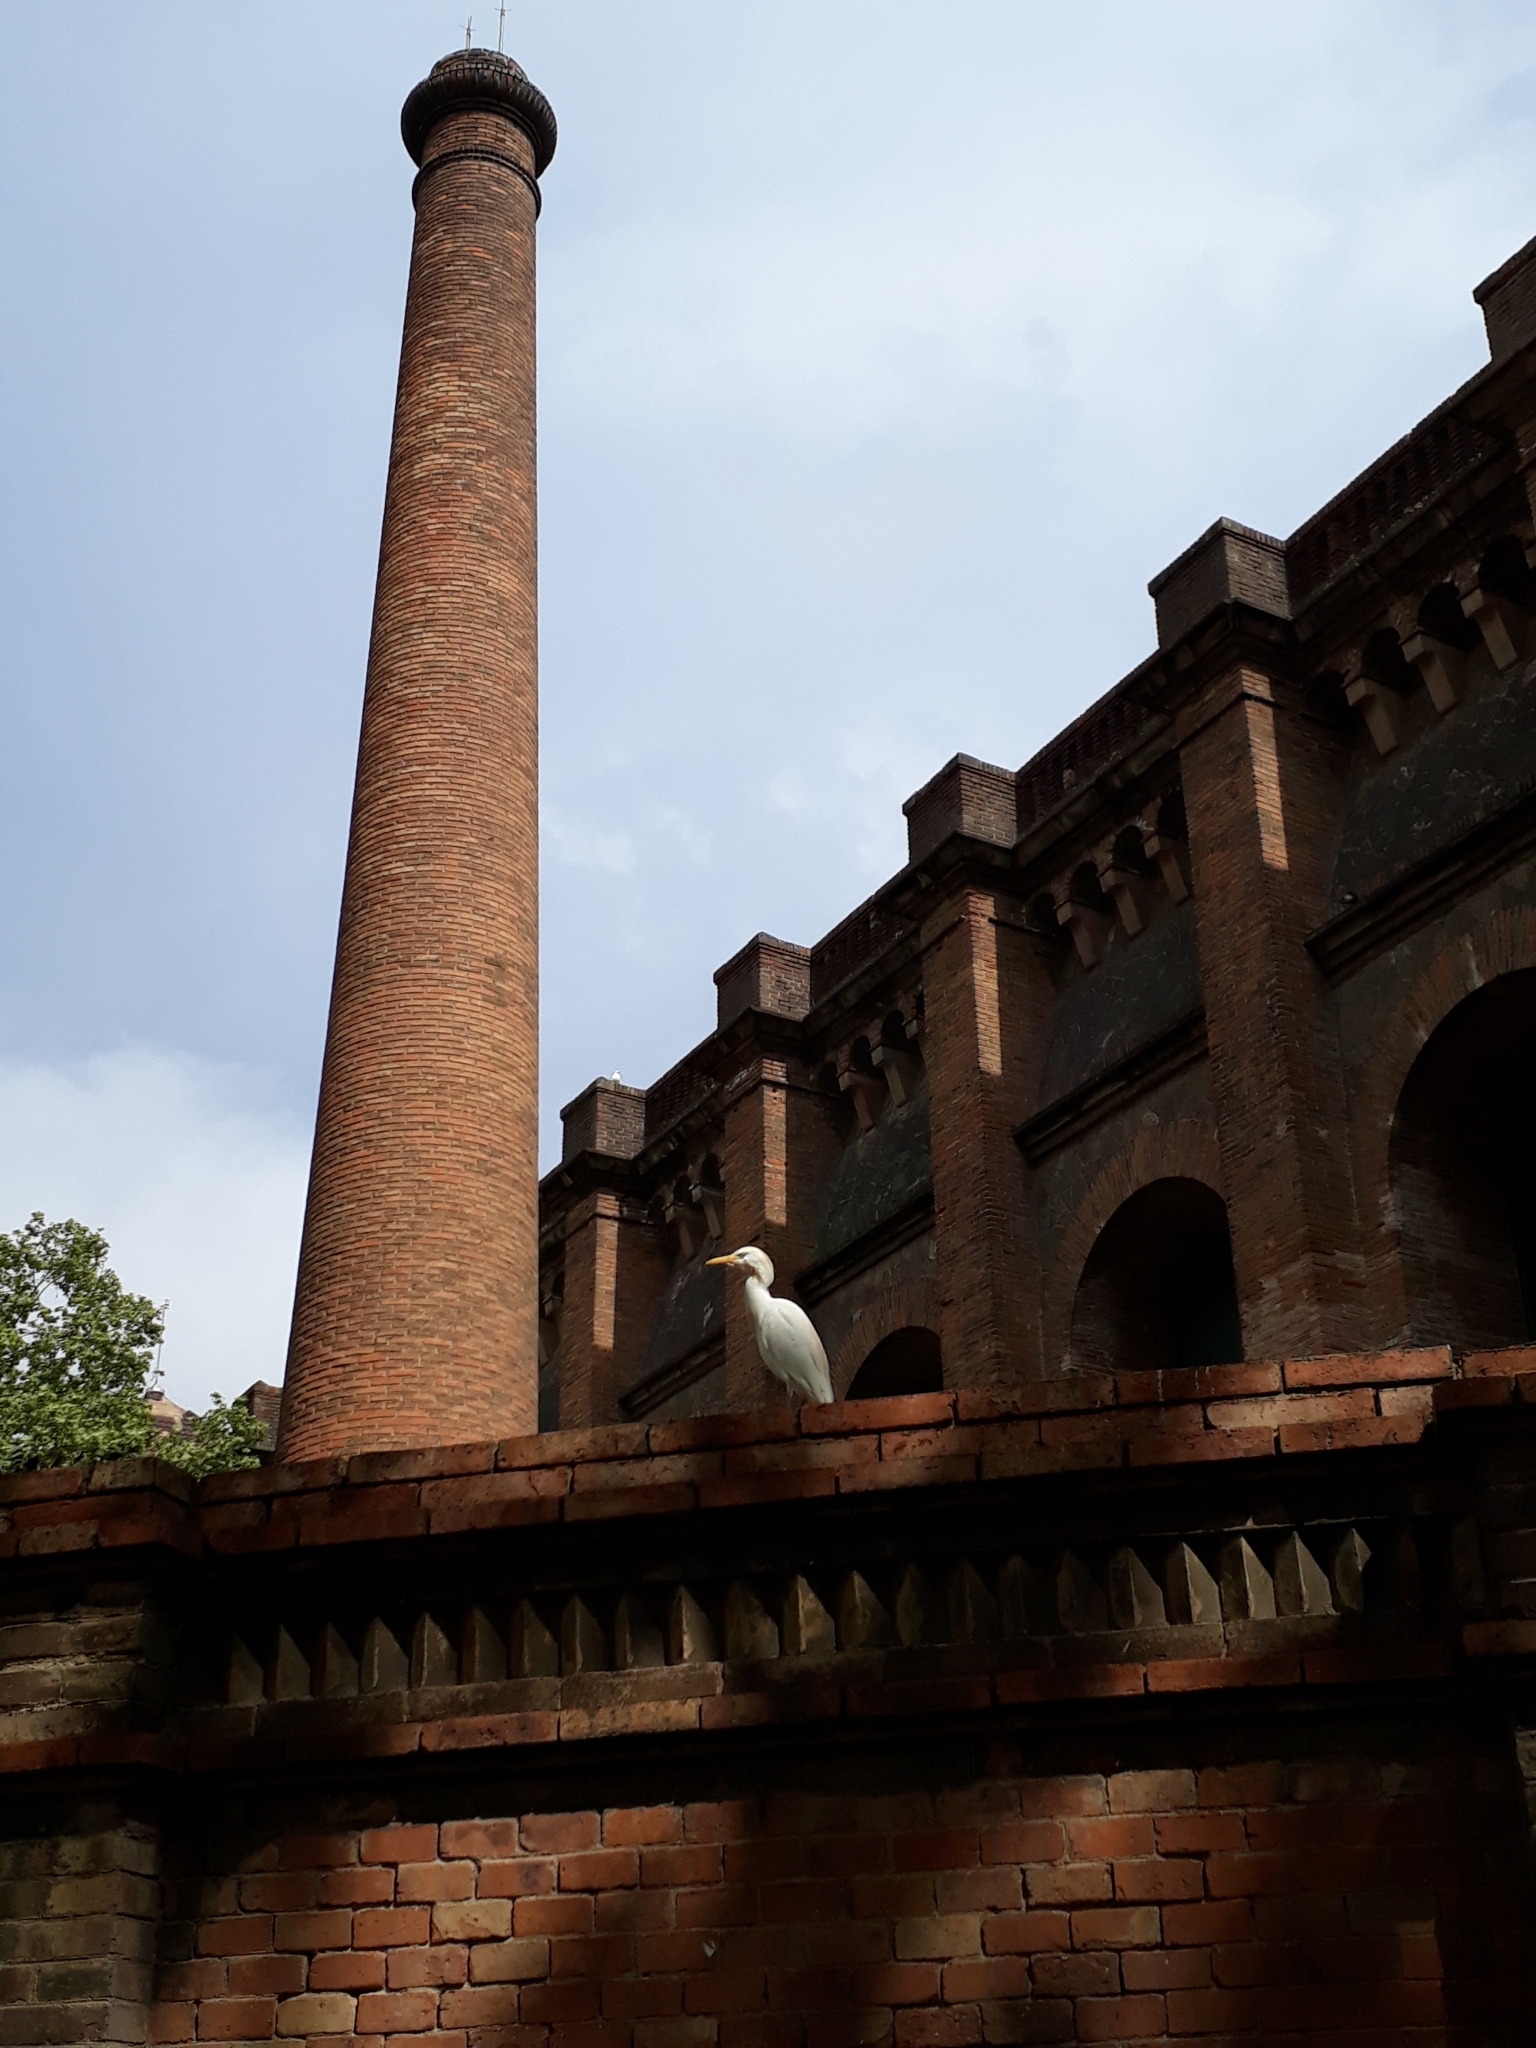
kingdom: Animalia
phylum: Chordata
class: Aves
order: Pelecaniformes
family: Ardeidae
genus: Bubulcus
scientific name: Bubulcus ibis
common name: Cattle egret
